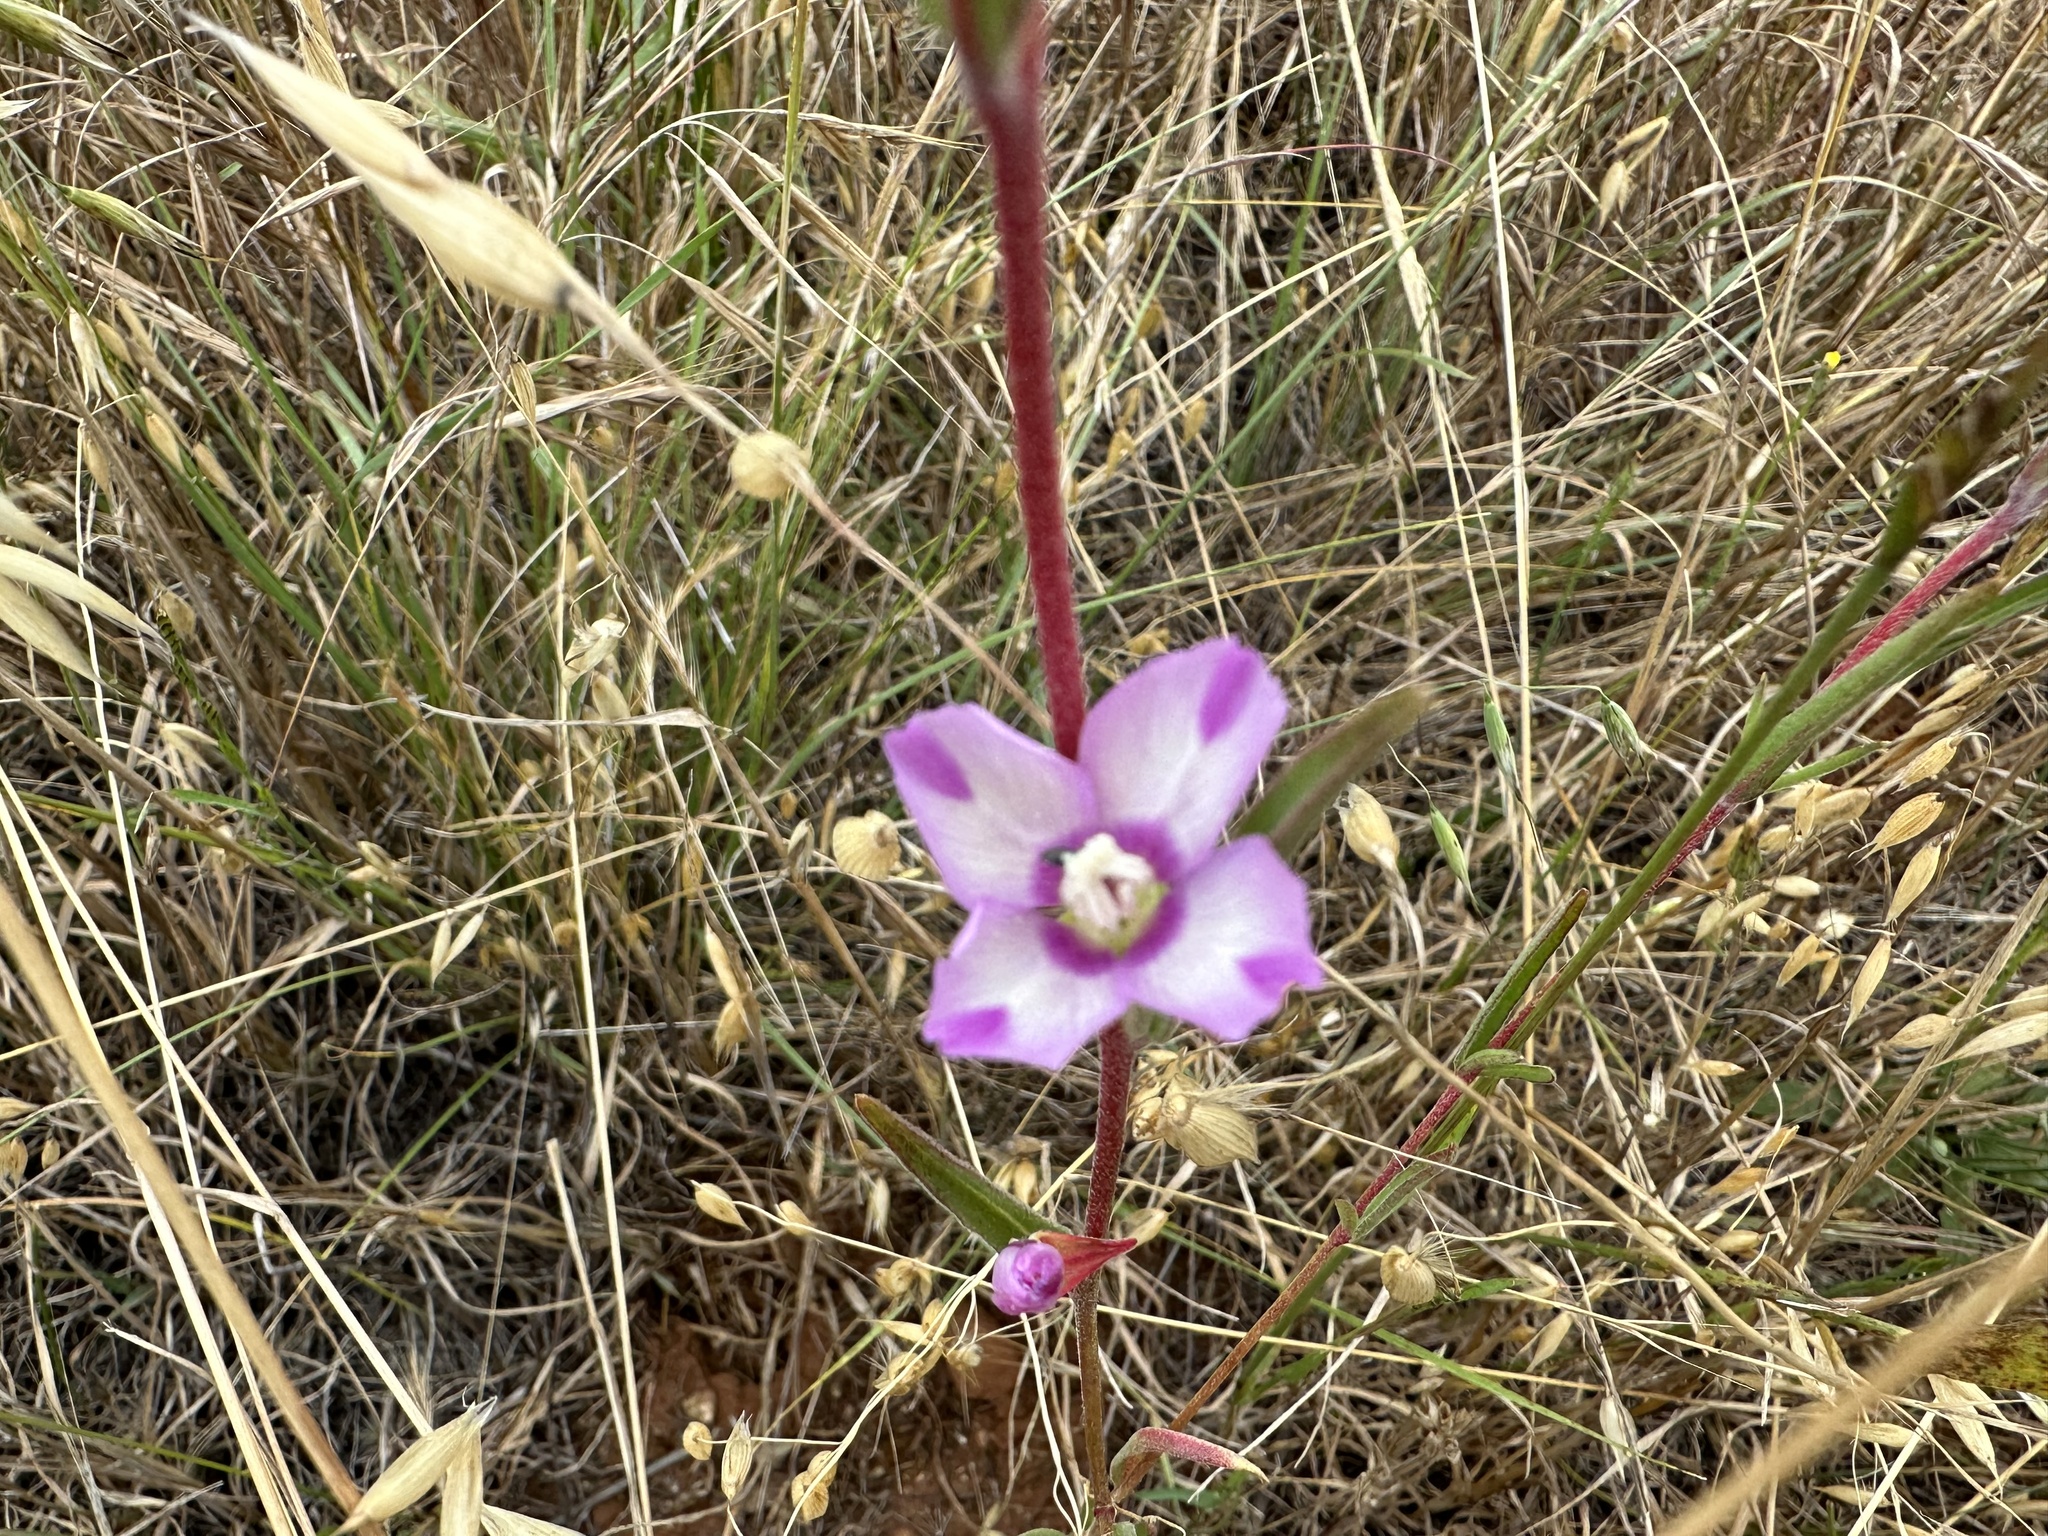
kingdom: Plantae
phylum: Tracheophyta
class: Magnoliopsida
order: Myrtales
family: Onagraceae
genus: Clarkia
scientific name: Clarkia purpurea
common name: Purple clarkia
